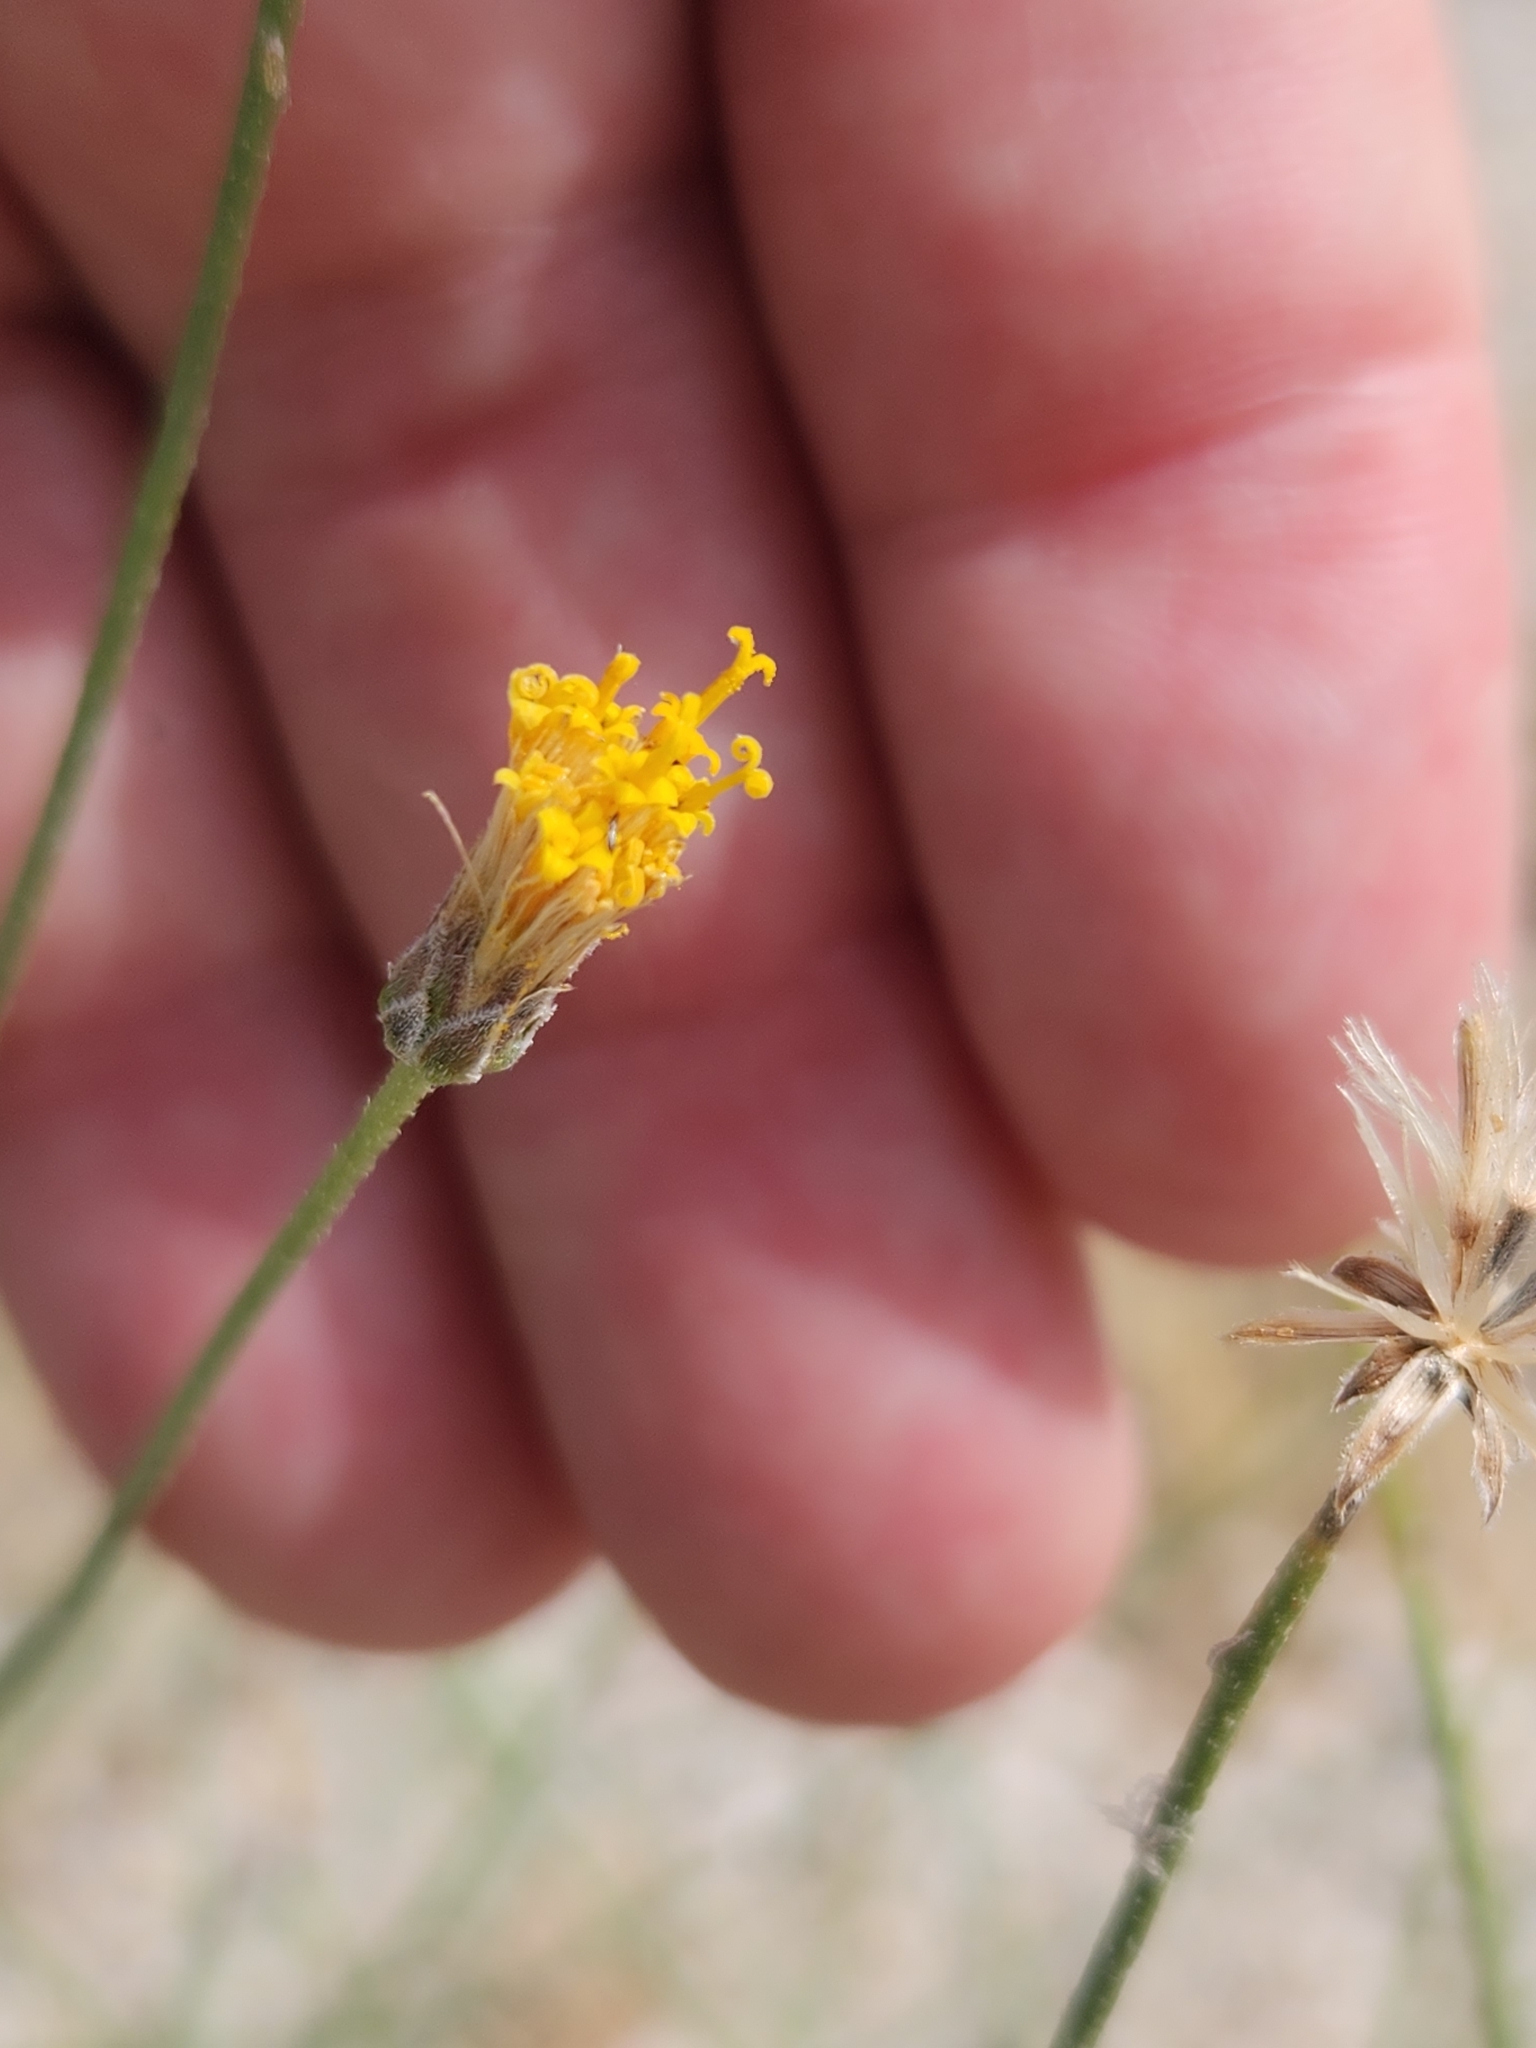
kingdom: Plantae
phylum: Tracheophyta
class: Magnoliopsida
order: Asterales
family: Asteraceae
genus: Bebbia
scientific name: Bebbia juncea
